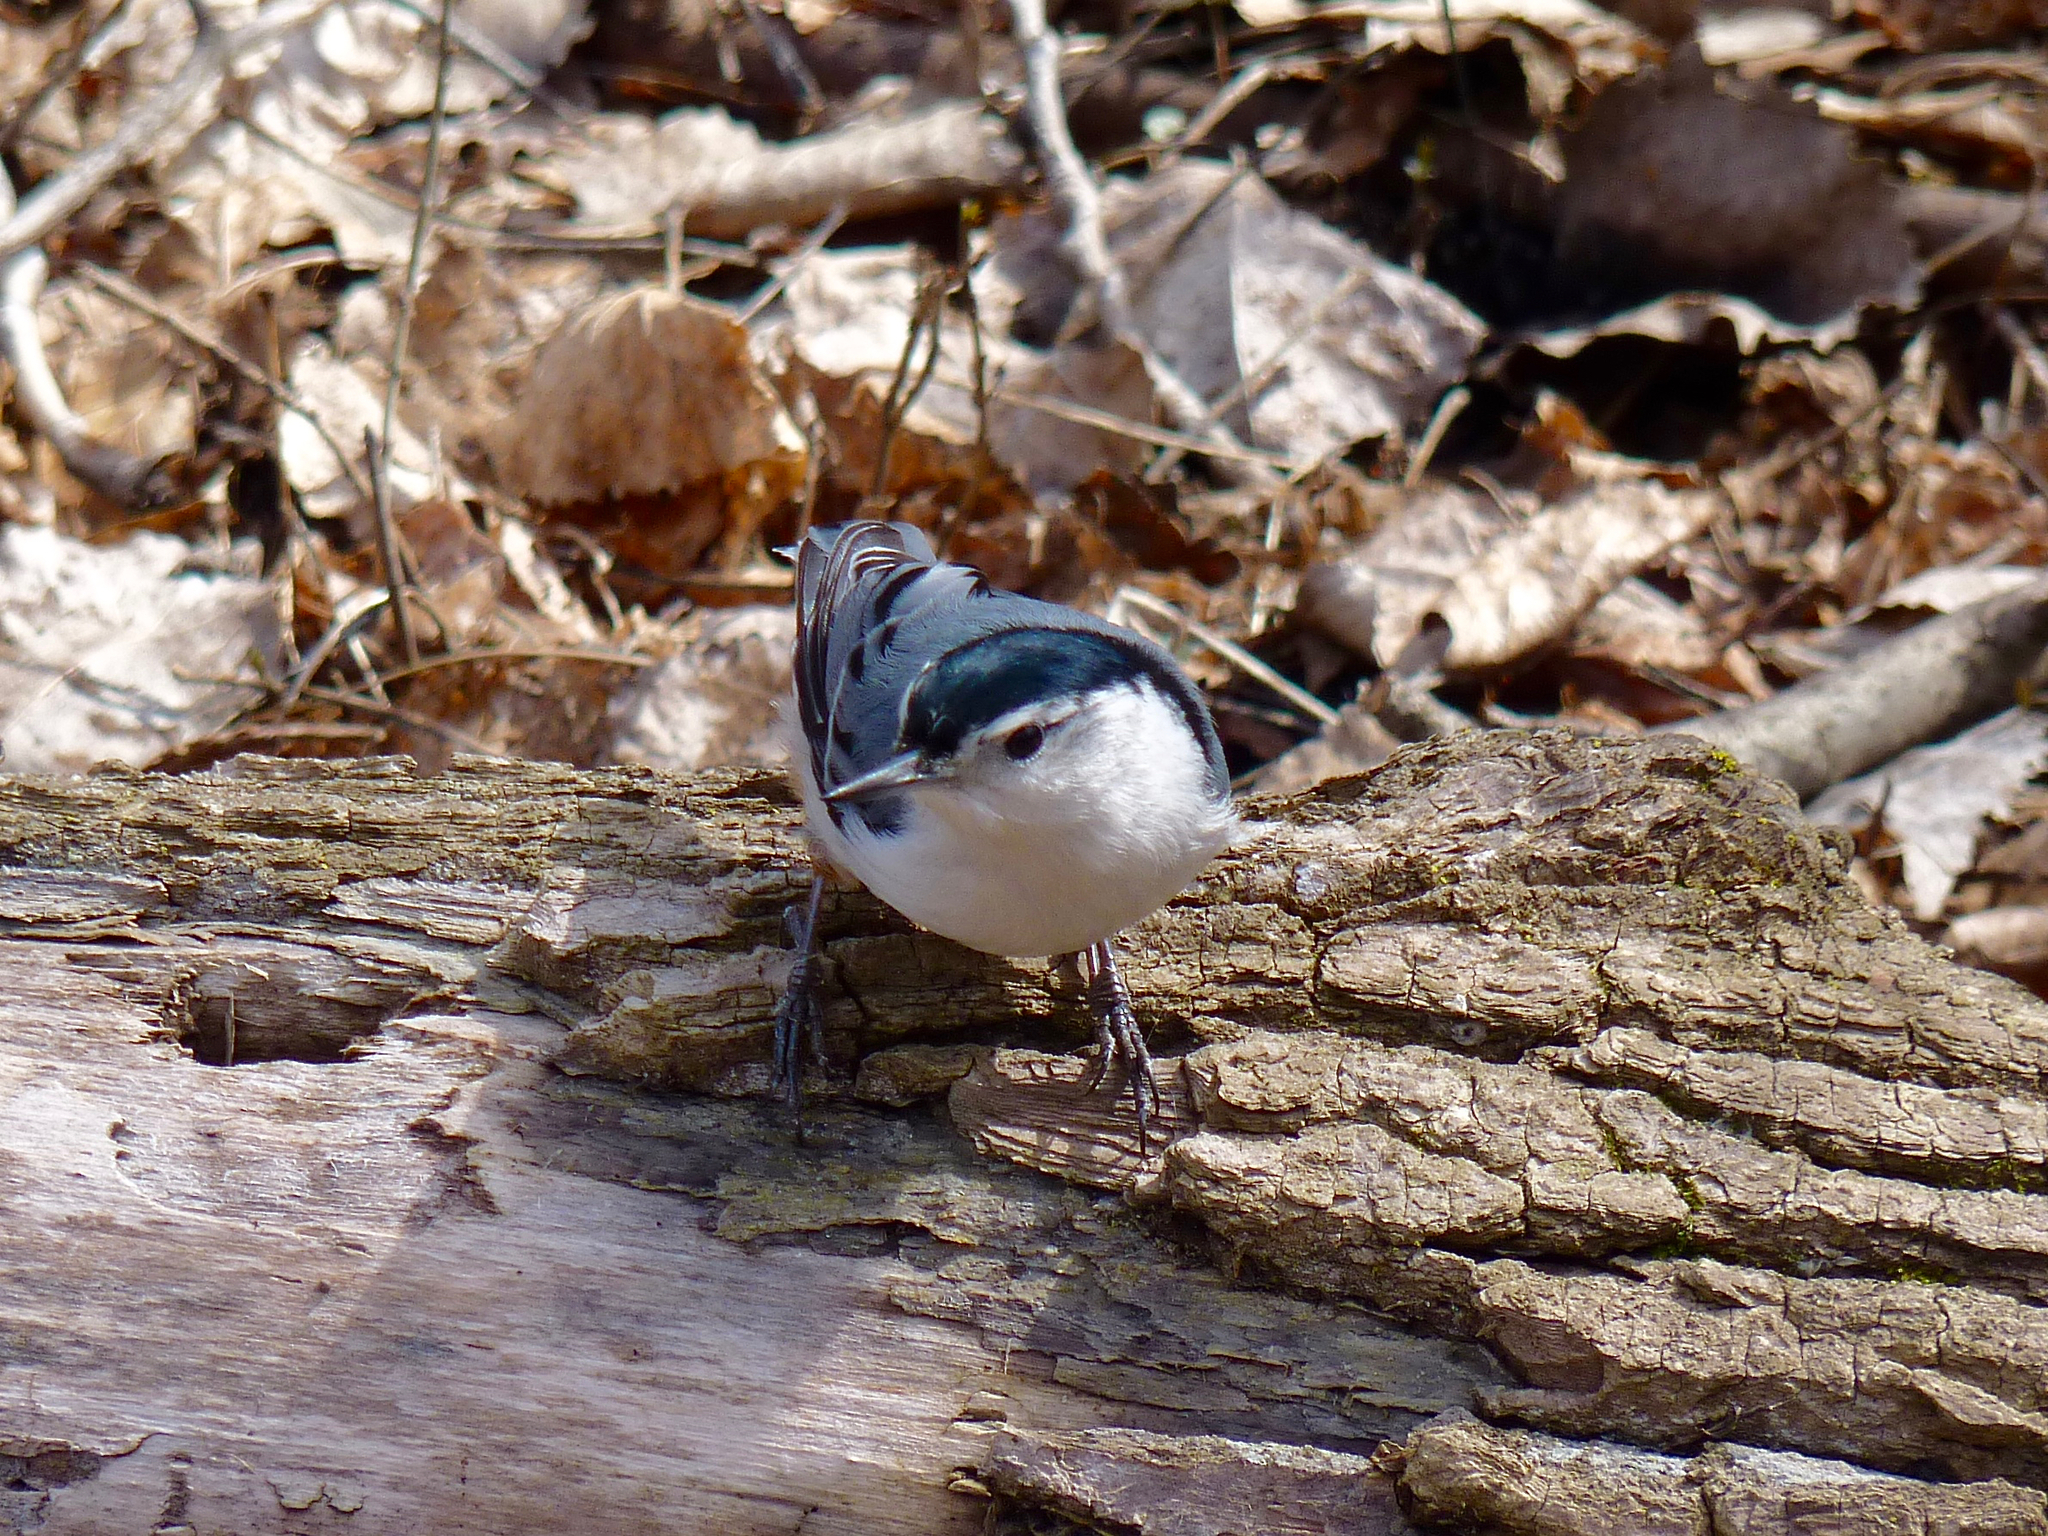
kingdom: Animalia
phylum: Chordata
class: Aves
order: Passeriformes
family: Sittidae
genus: Sitta
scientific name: Sitta carolinensis
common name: White-breasted nuthatch
